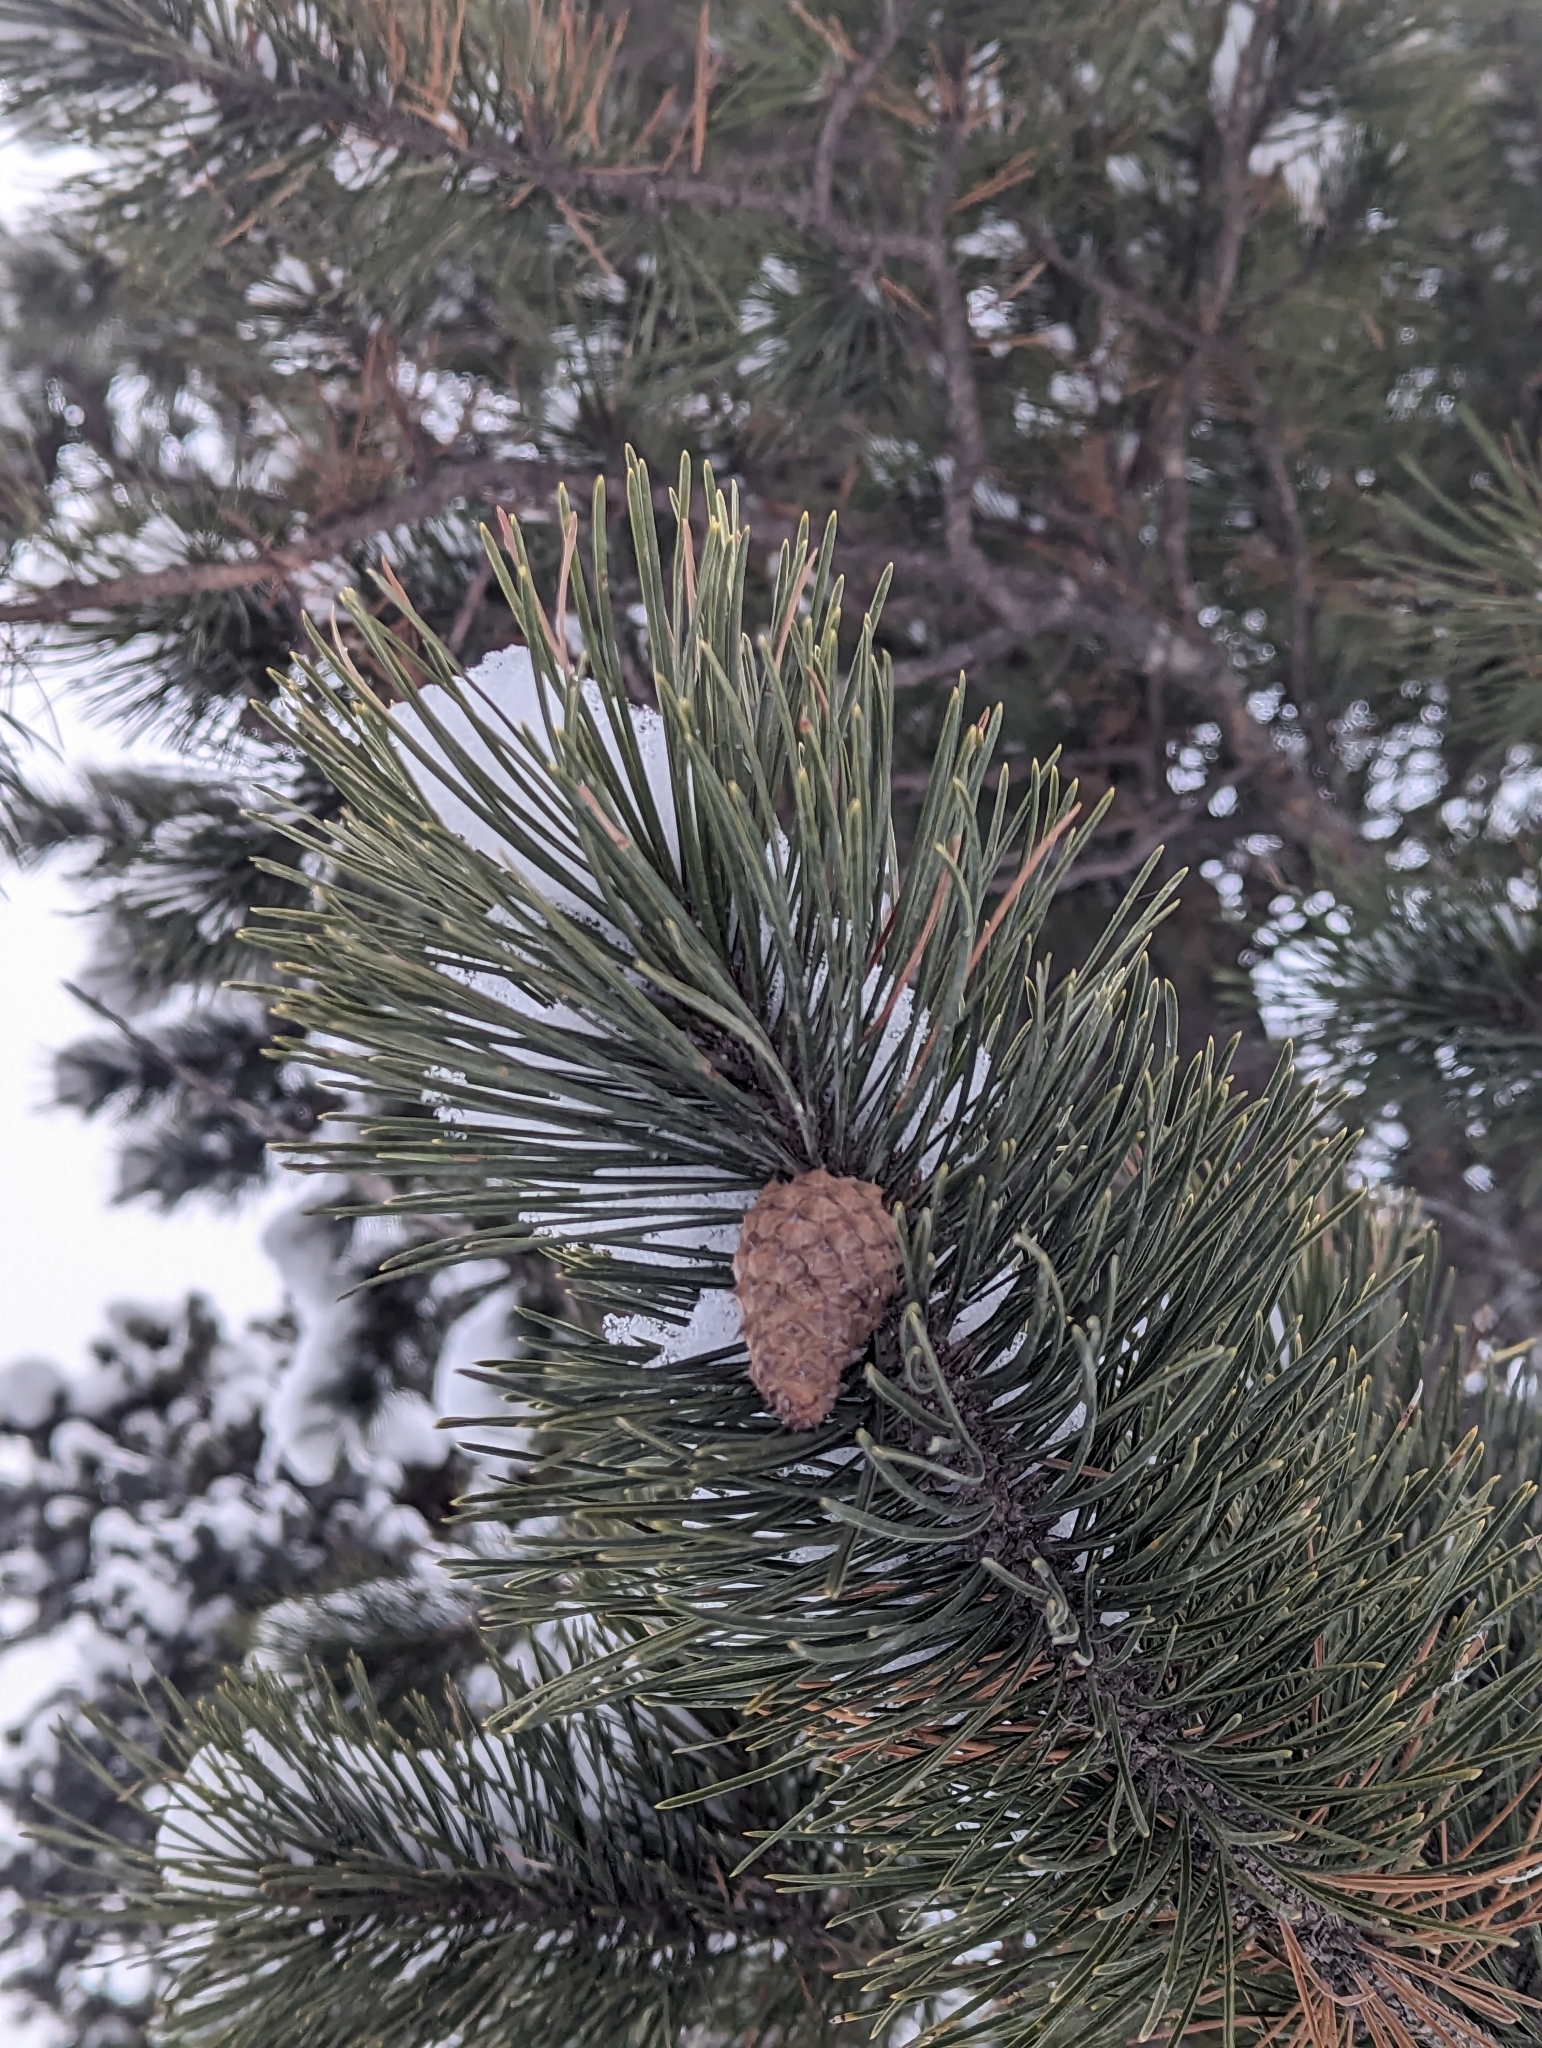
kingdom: Plantae
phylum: Tracheophyta
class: Pinopsida
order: Pinales
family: Pinaceae
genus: Pinus
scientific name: Pinus contorta
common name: Lodgepole pine
